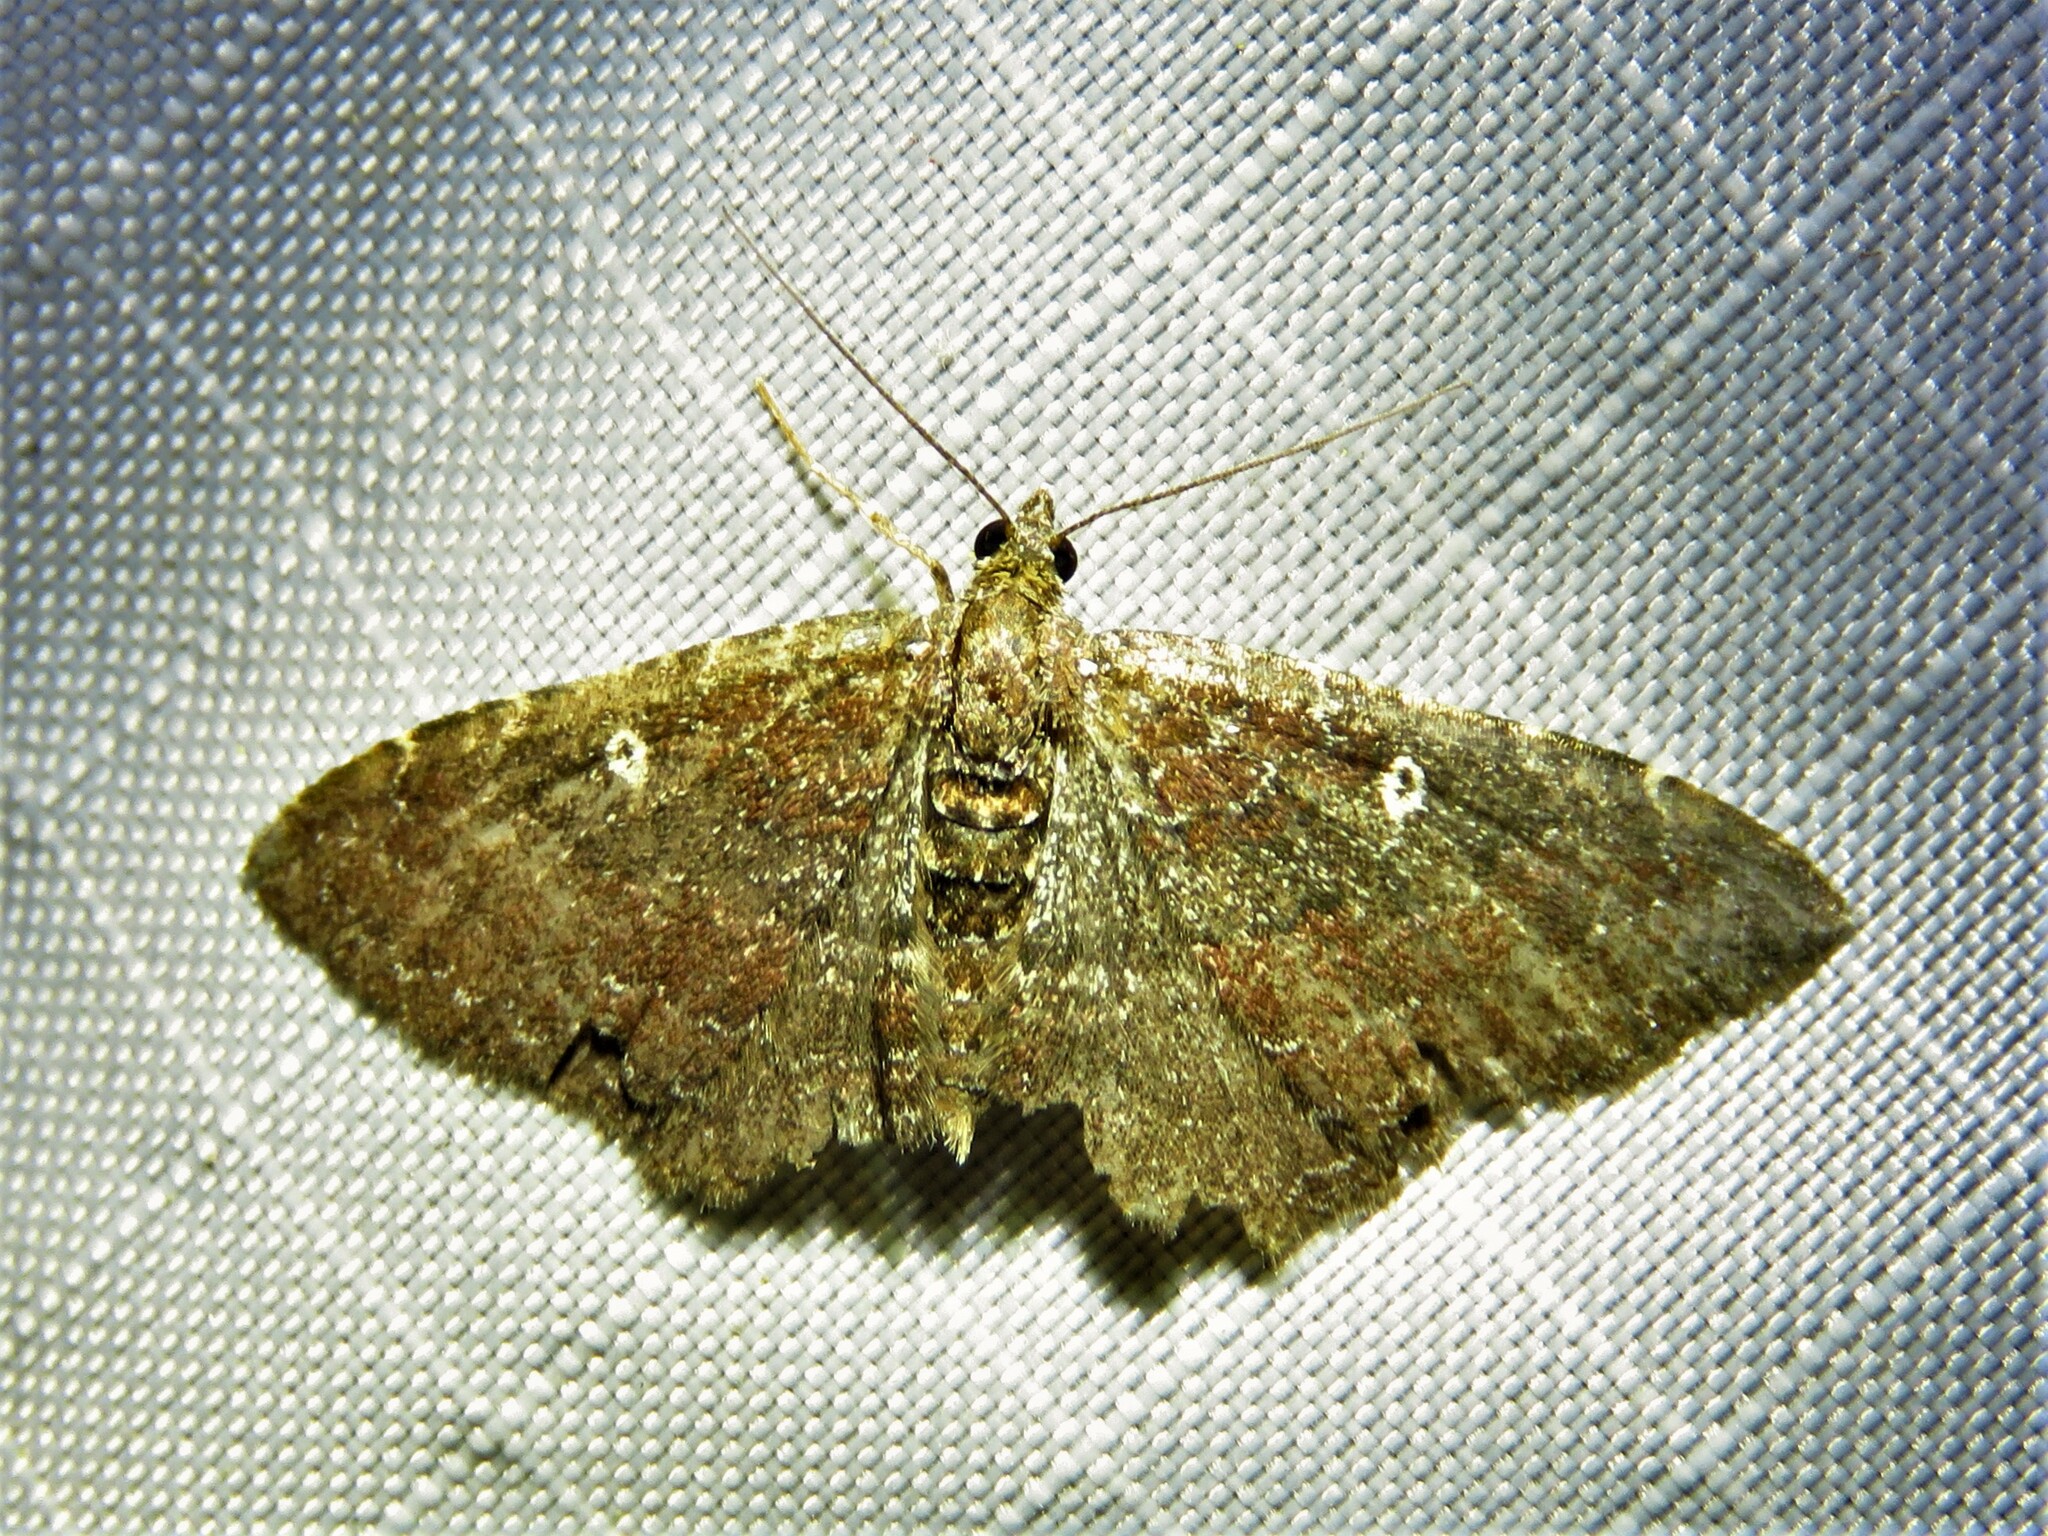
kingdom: Animalia
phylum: Arthropoda
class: Insecta
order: Lepidoptera
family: Geometridae
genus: Orthonama
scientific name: Orthonama obstipata
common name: The gem
